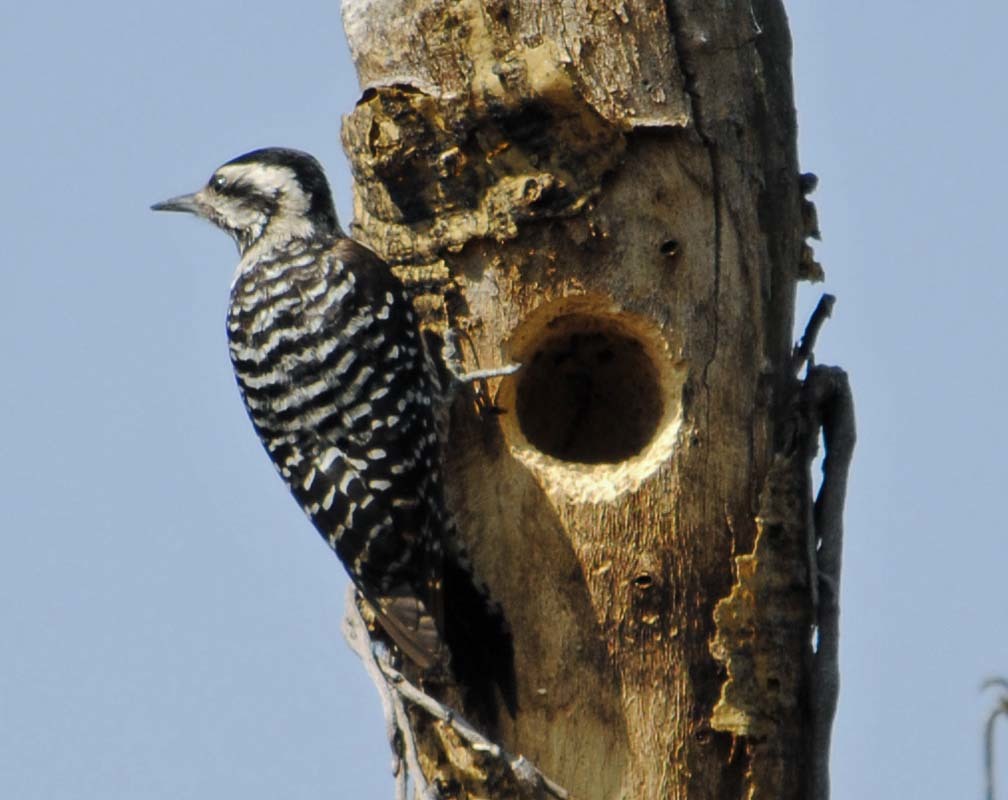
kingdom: Animalia
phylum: Chordata
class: Aves
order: Piciformes
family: Picidae
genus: Dryobates
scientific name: Dryobates scalaris
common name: Ladder-backed woodpecker
